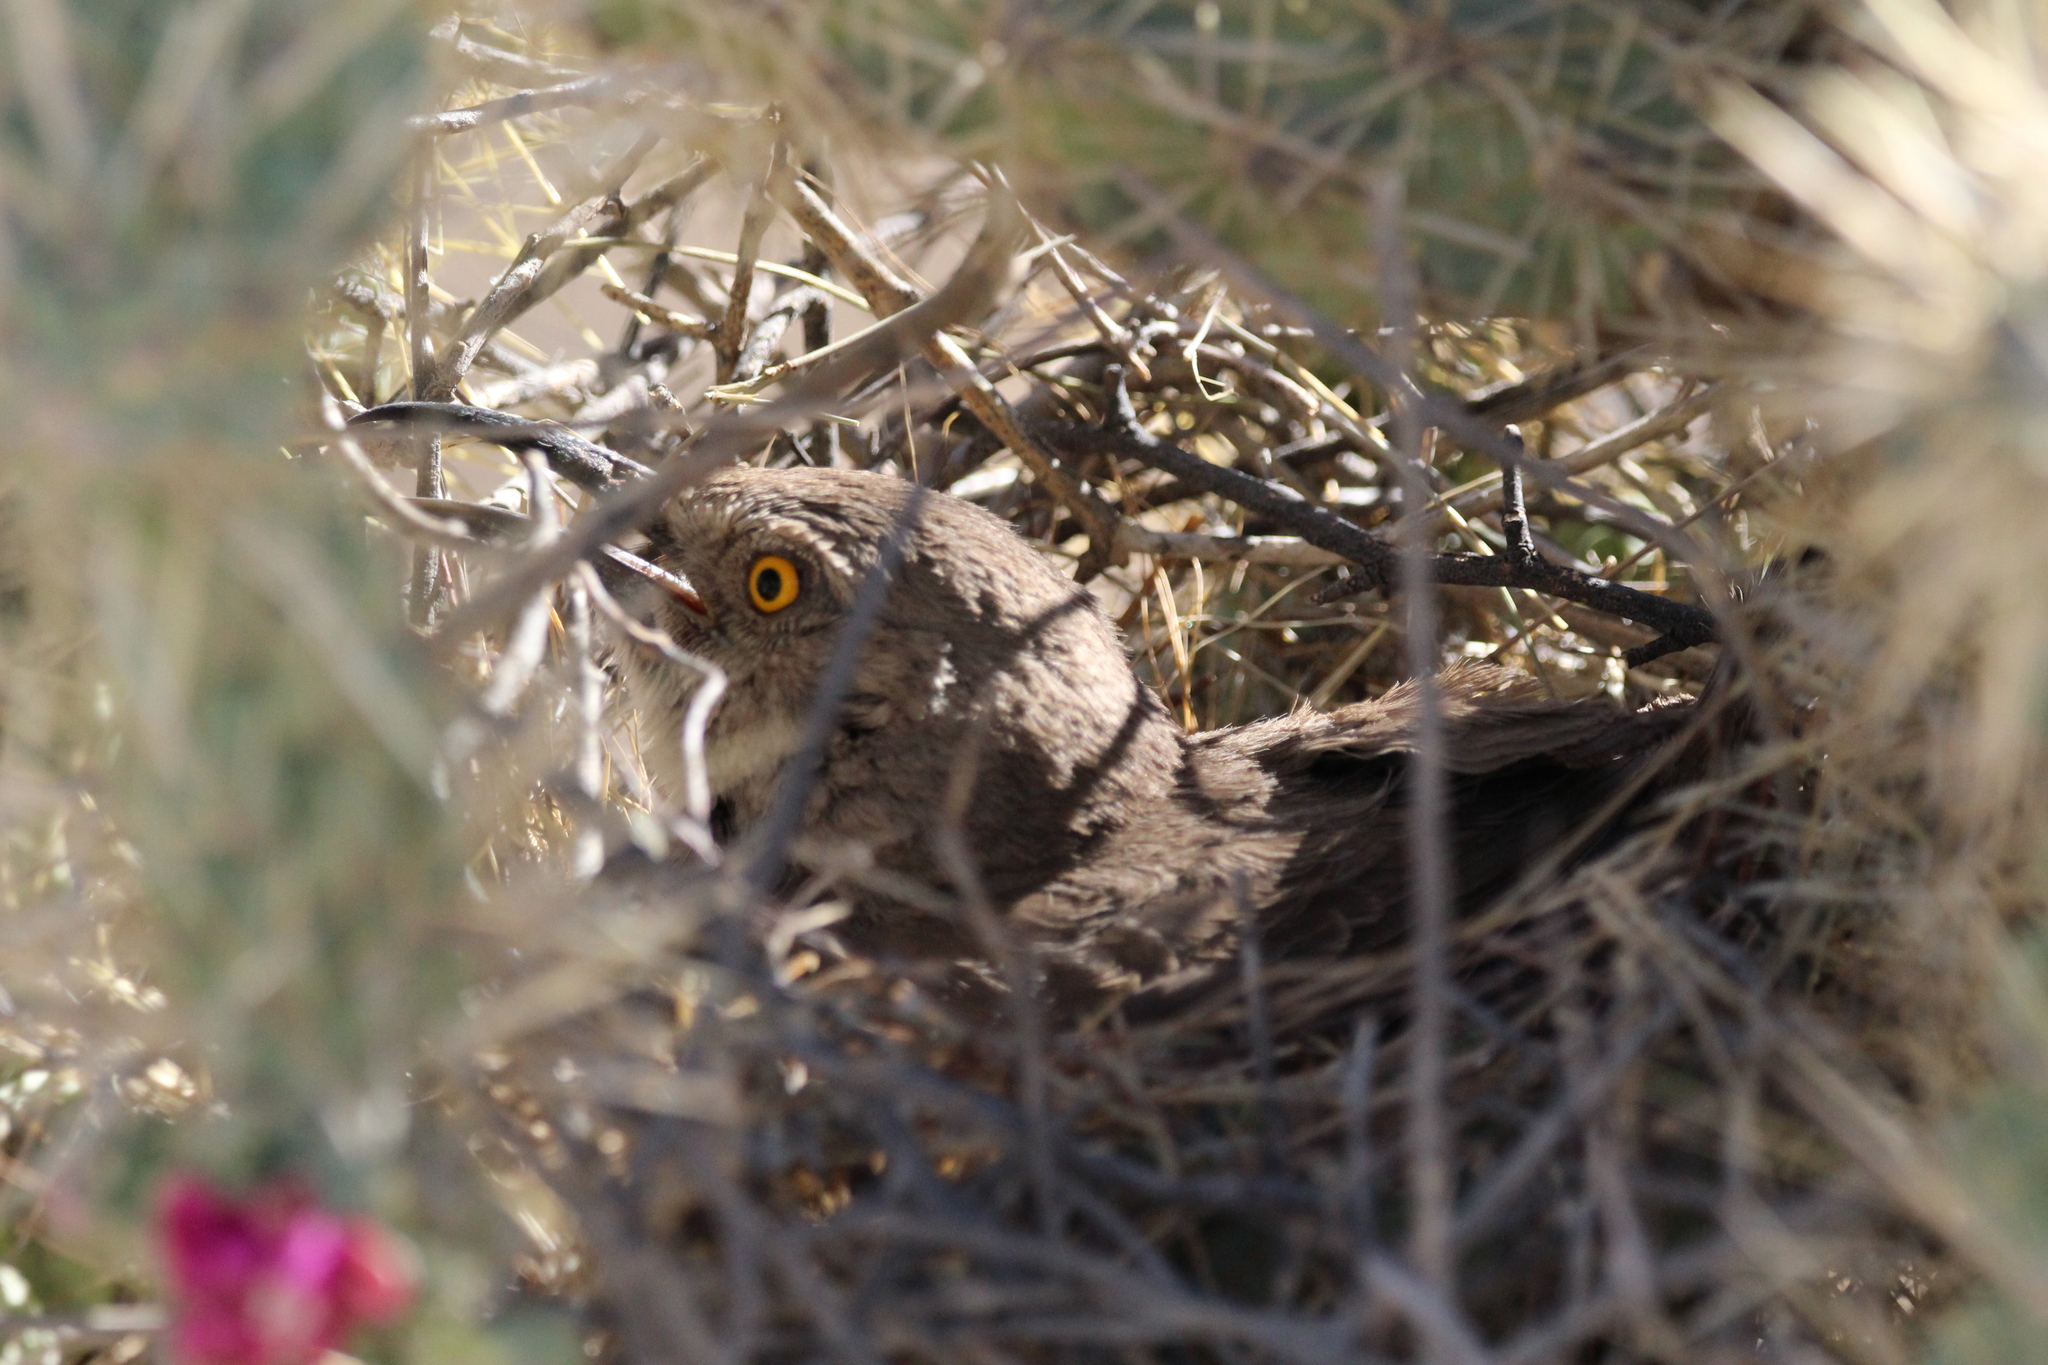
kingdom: Animalia
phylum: Chordata
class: Aves
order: Passeriformes
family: Mimidae
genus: Toxostoma
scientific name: Toxostoma curvirostre
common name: Curve-billed thrasher
